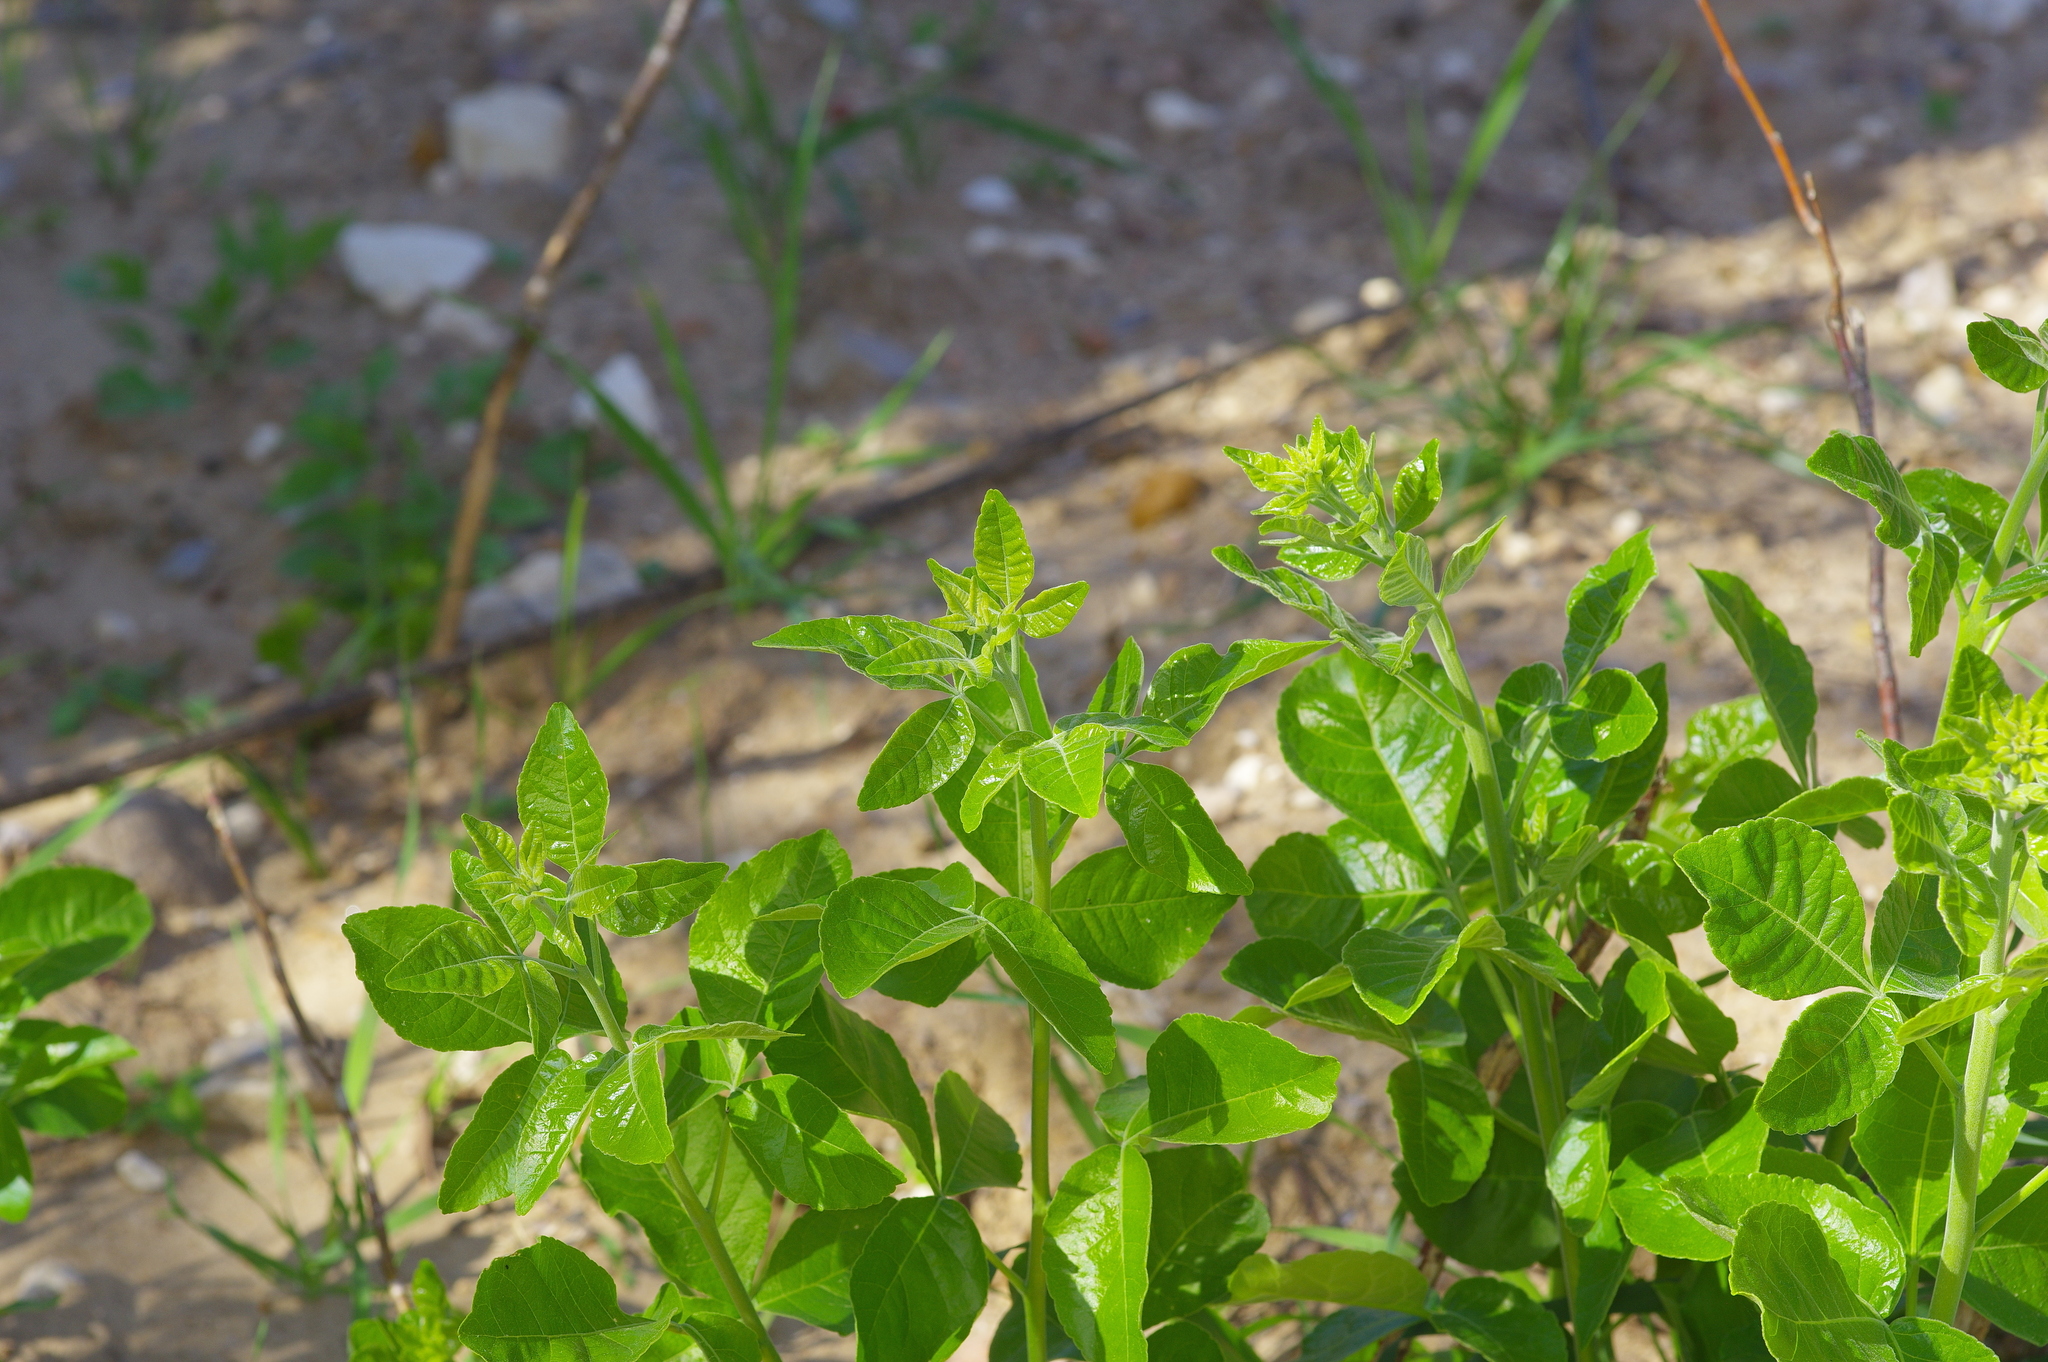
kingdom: Plantae
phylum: Tracheophyta
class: Magnoliopsida
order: Sapindales
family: Rutaceae
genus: Ptelea
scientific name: Ptelea trifoliata
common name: Common hop-tree
